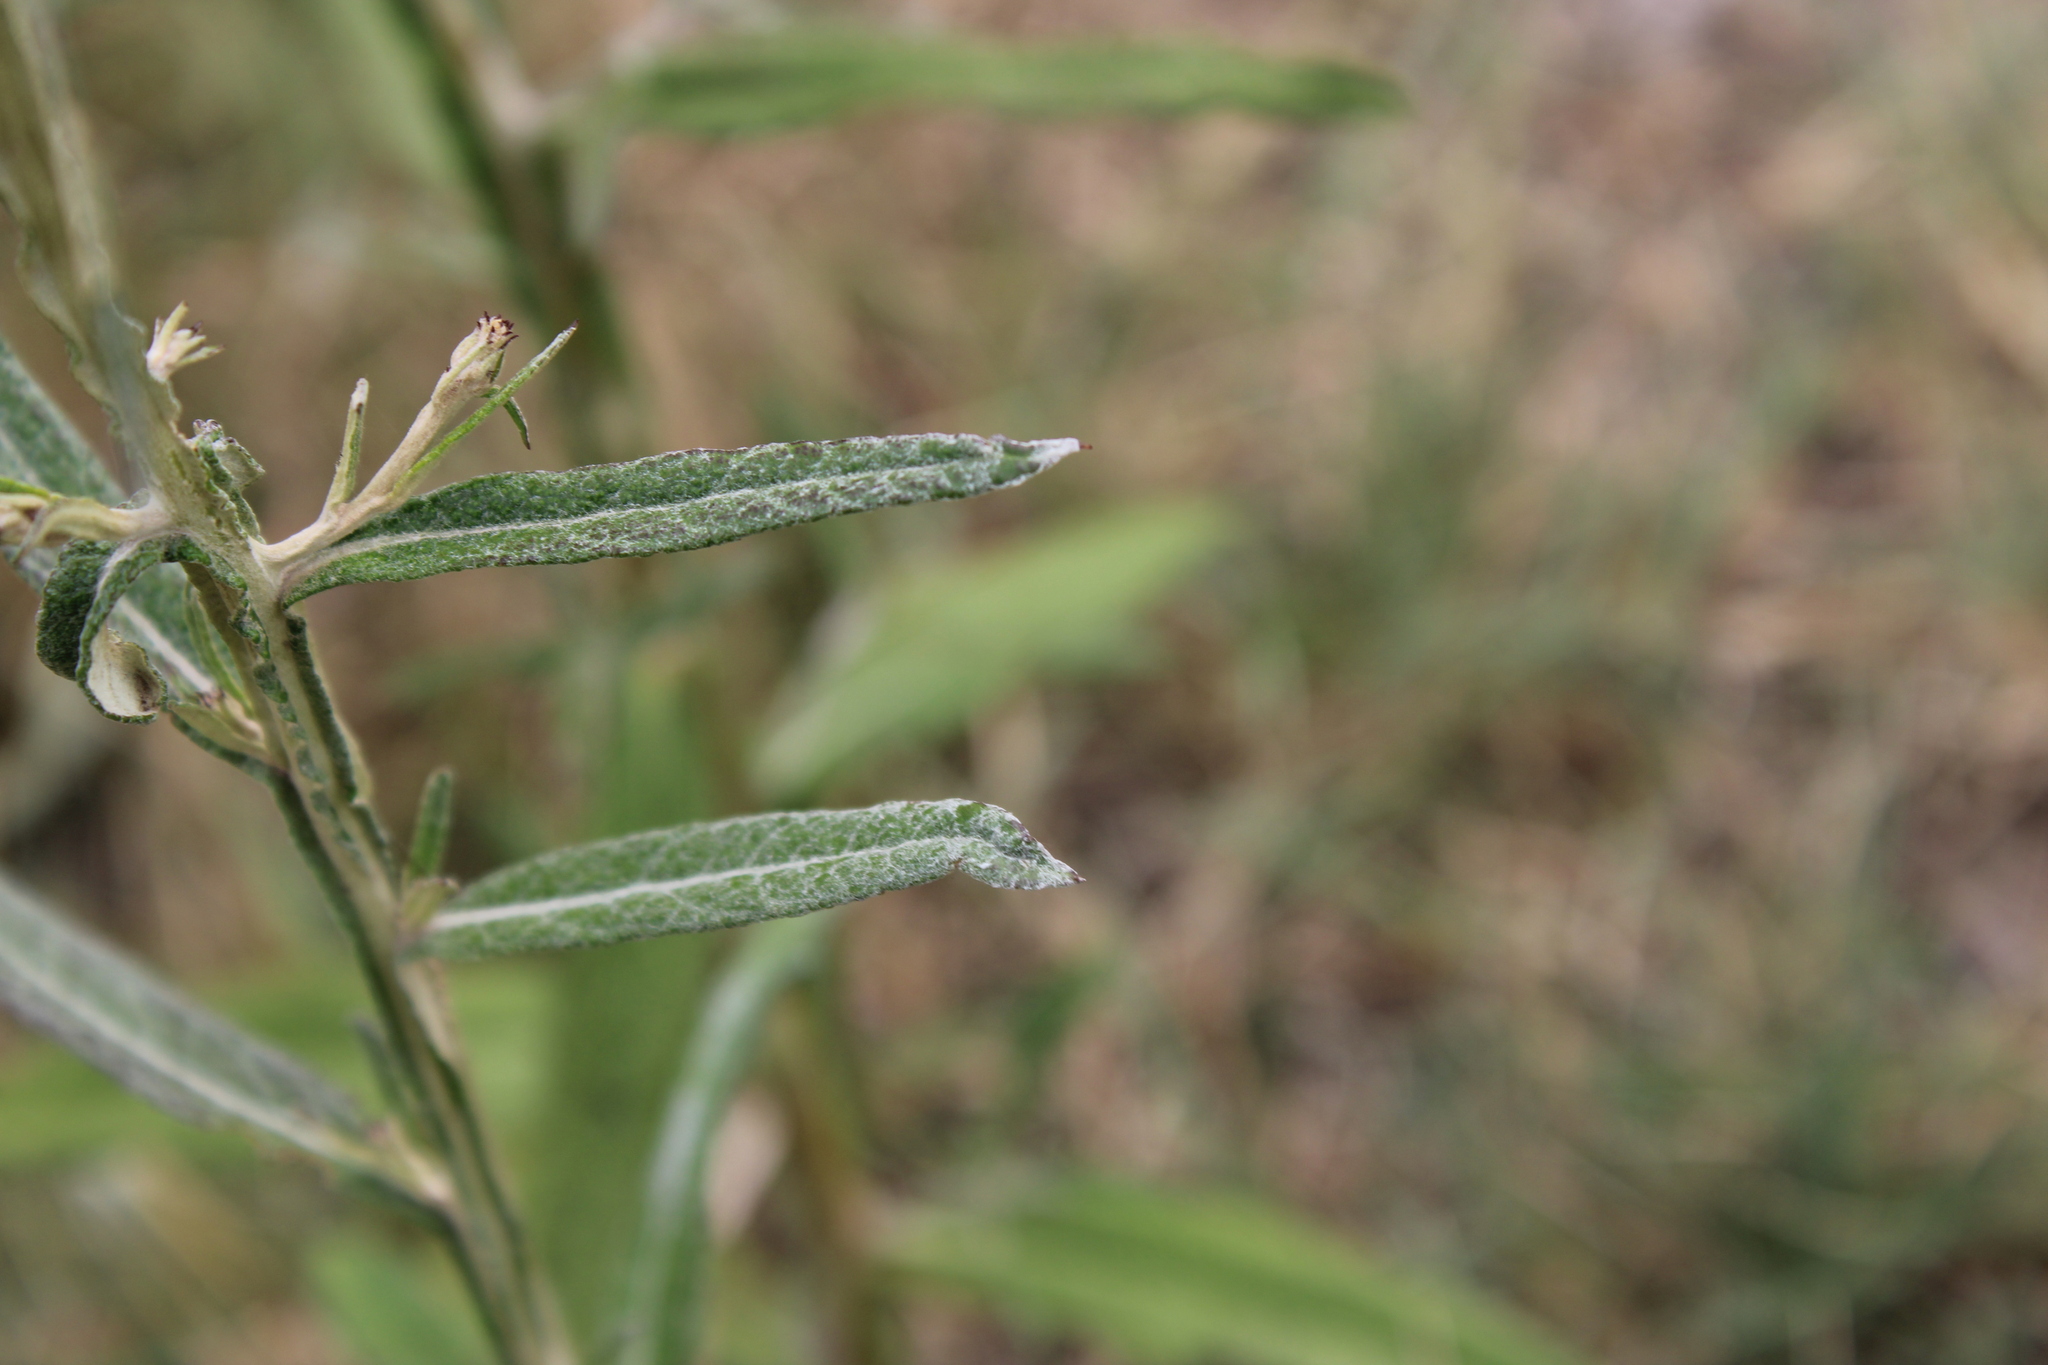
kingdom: Plantae
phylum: Tracheophyta
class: Magnoliopsida
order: Asterales
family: Asteraceae
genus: Pterocaulon
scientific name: Pterocaulon cordobense
